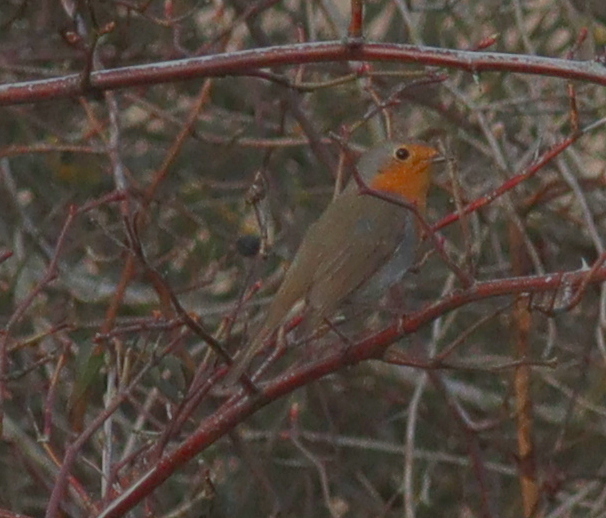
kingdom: Animalia
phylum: Chordata
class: Aves
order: Passeriformes
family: Muscicapidae
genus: Erithacus
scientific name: Erithacus rubecula
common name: European robin
